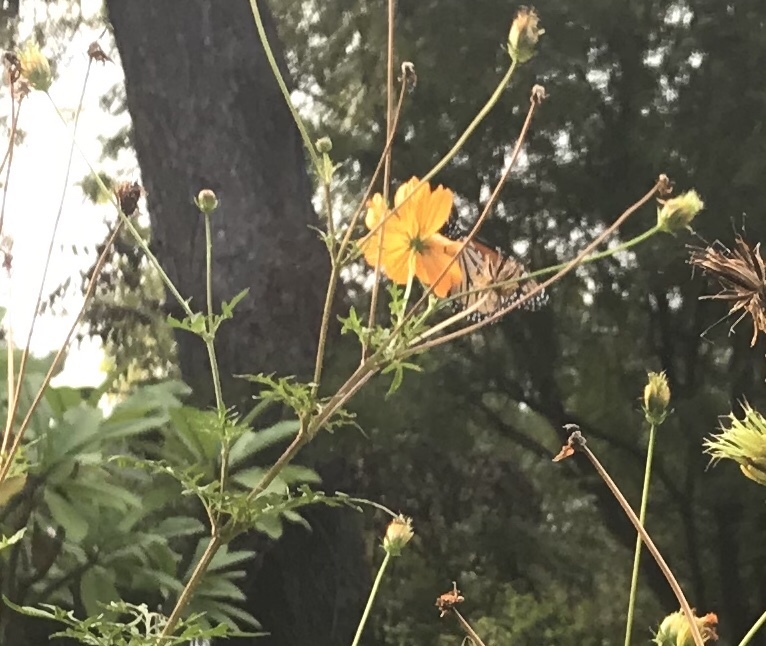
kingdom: Animalia
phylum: Arthropoda
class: Insecta
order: Lepidoptera
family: Nymphalidae
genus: Danaus
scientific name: Danaus plexippus
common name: Monarch
